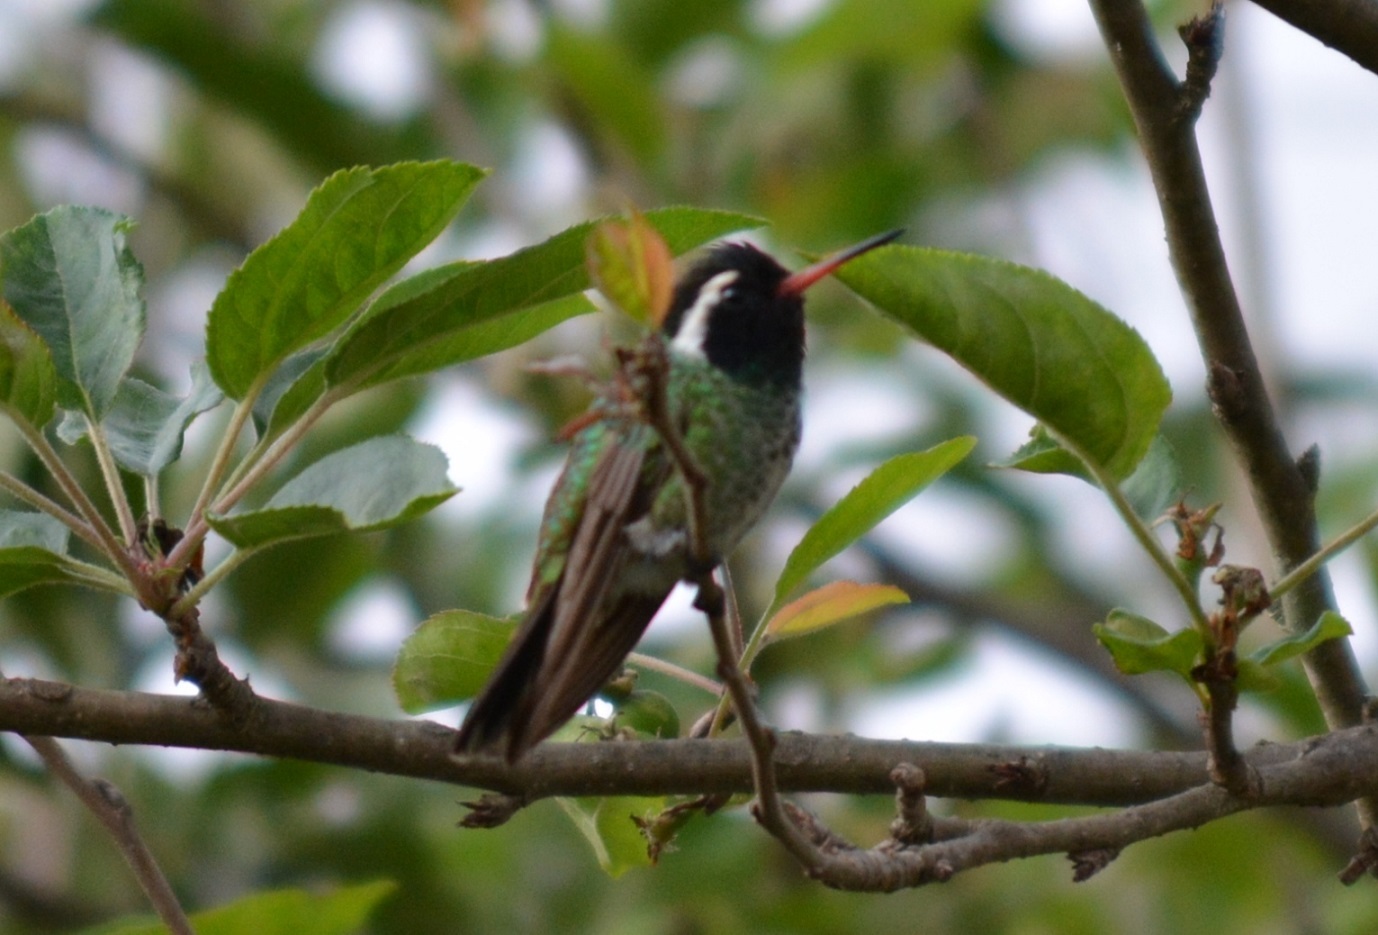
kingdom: Animalia
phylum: Chordata
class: Aves
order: Apodiformes
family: Trochilidae
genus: Basilinna
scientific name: Basilinna leucotis
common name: White-eared hummingbird
